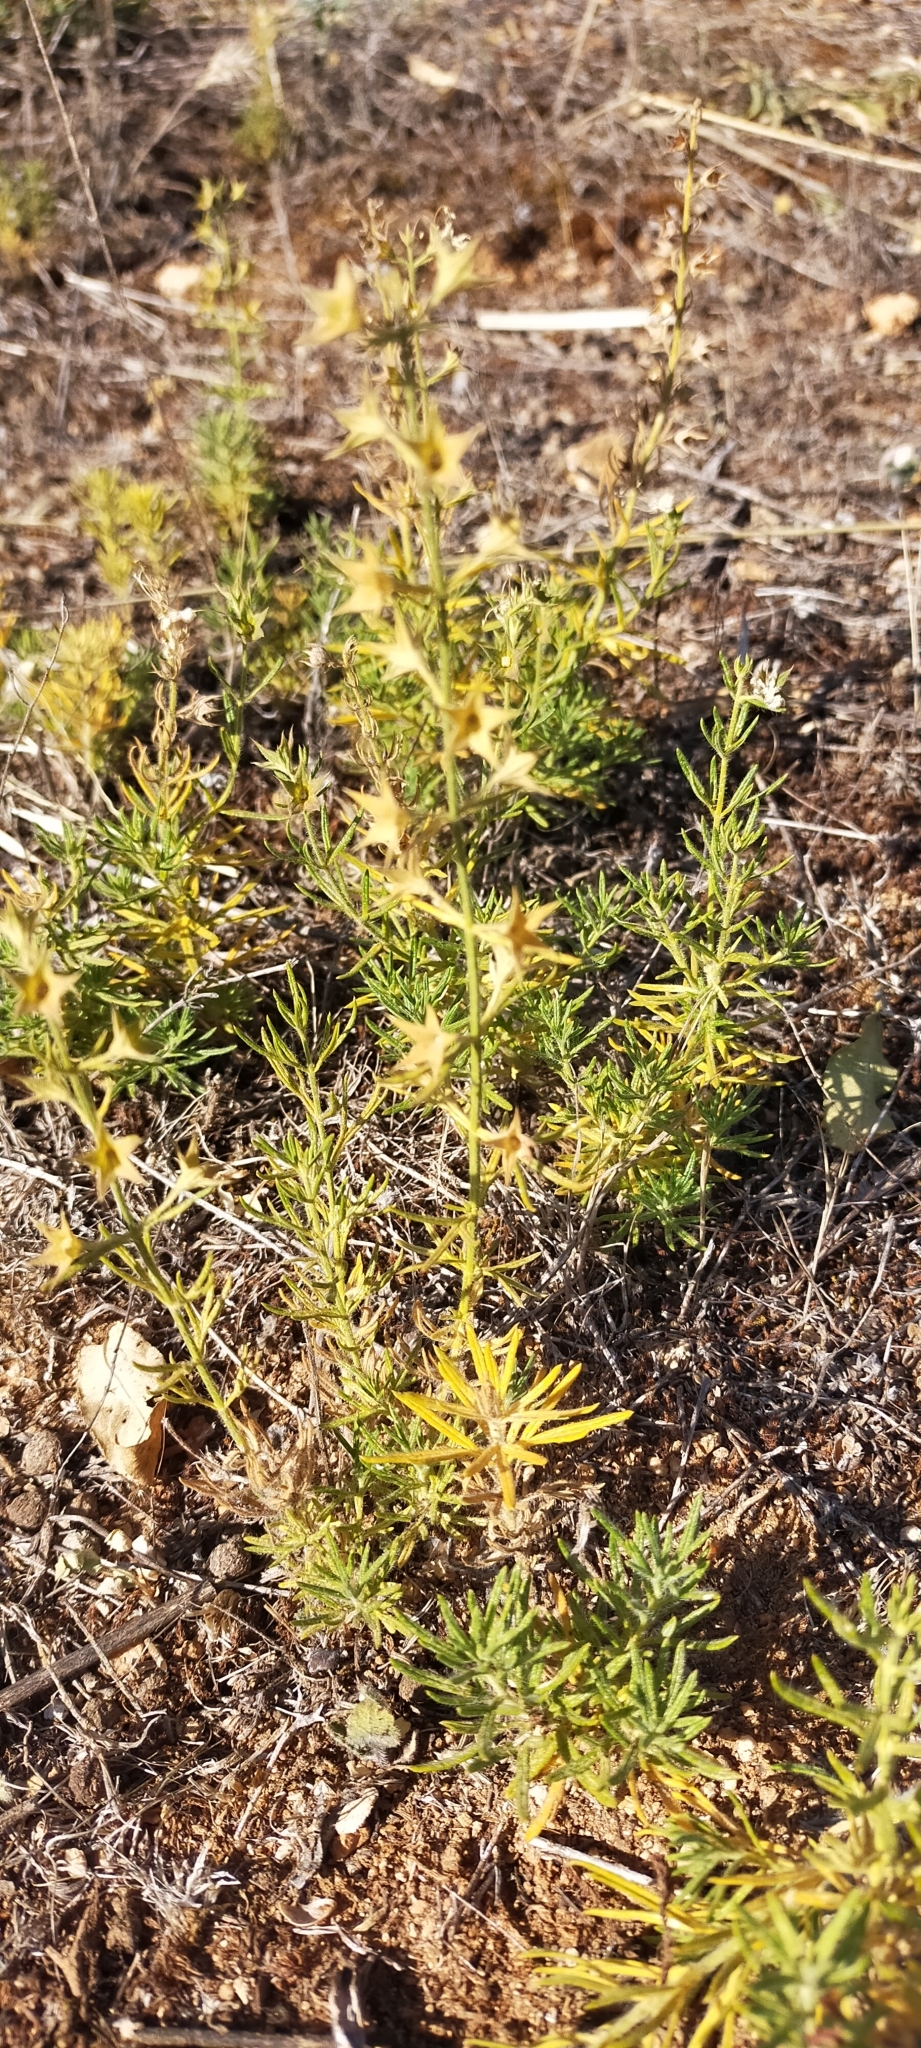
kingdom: Plantae
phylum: Tracheophyta
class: Magnoliopsida
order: Lamiales
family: Lamiaceae
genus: Teucrium
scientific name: Teucrium pseudochamaepitys
